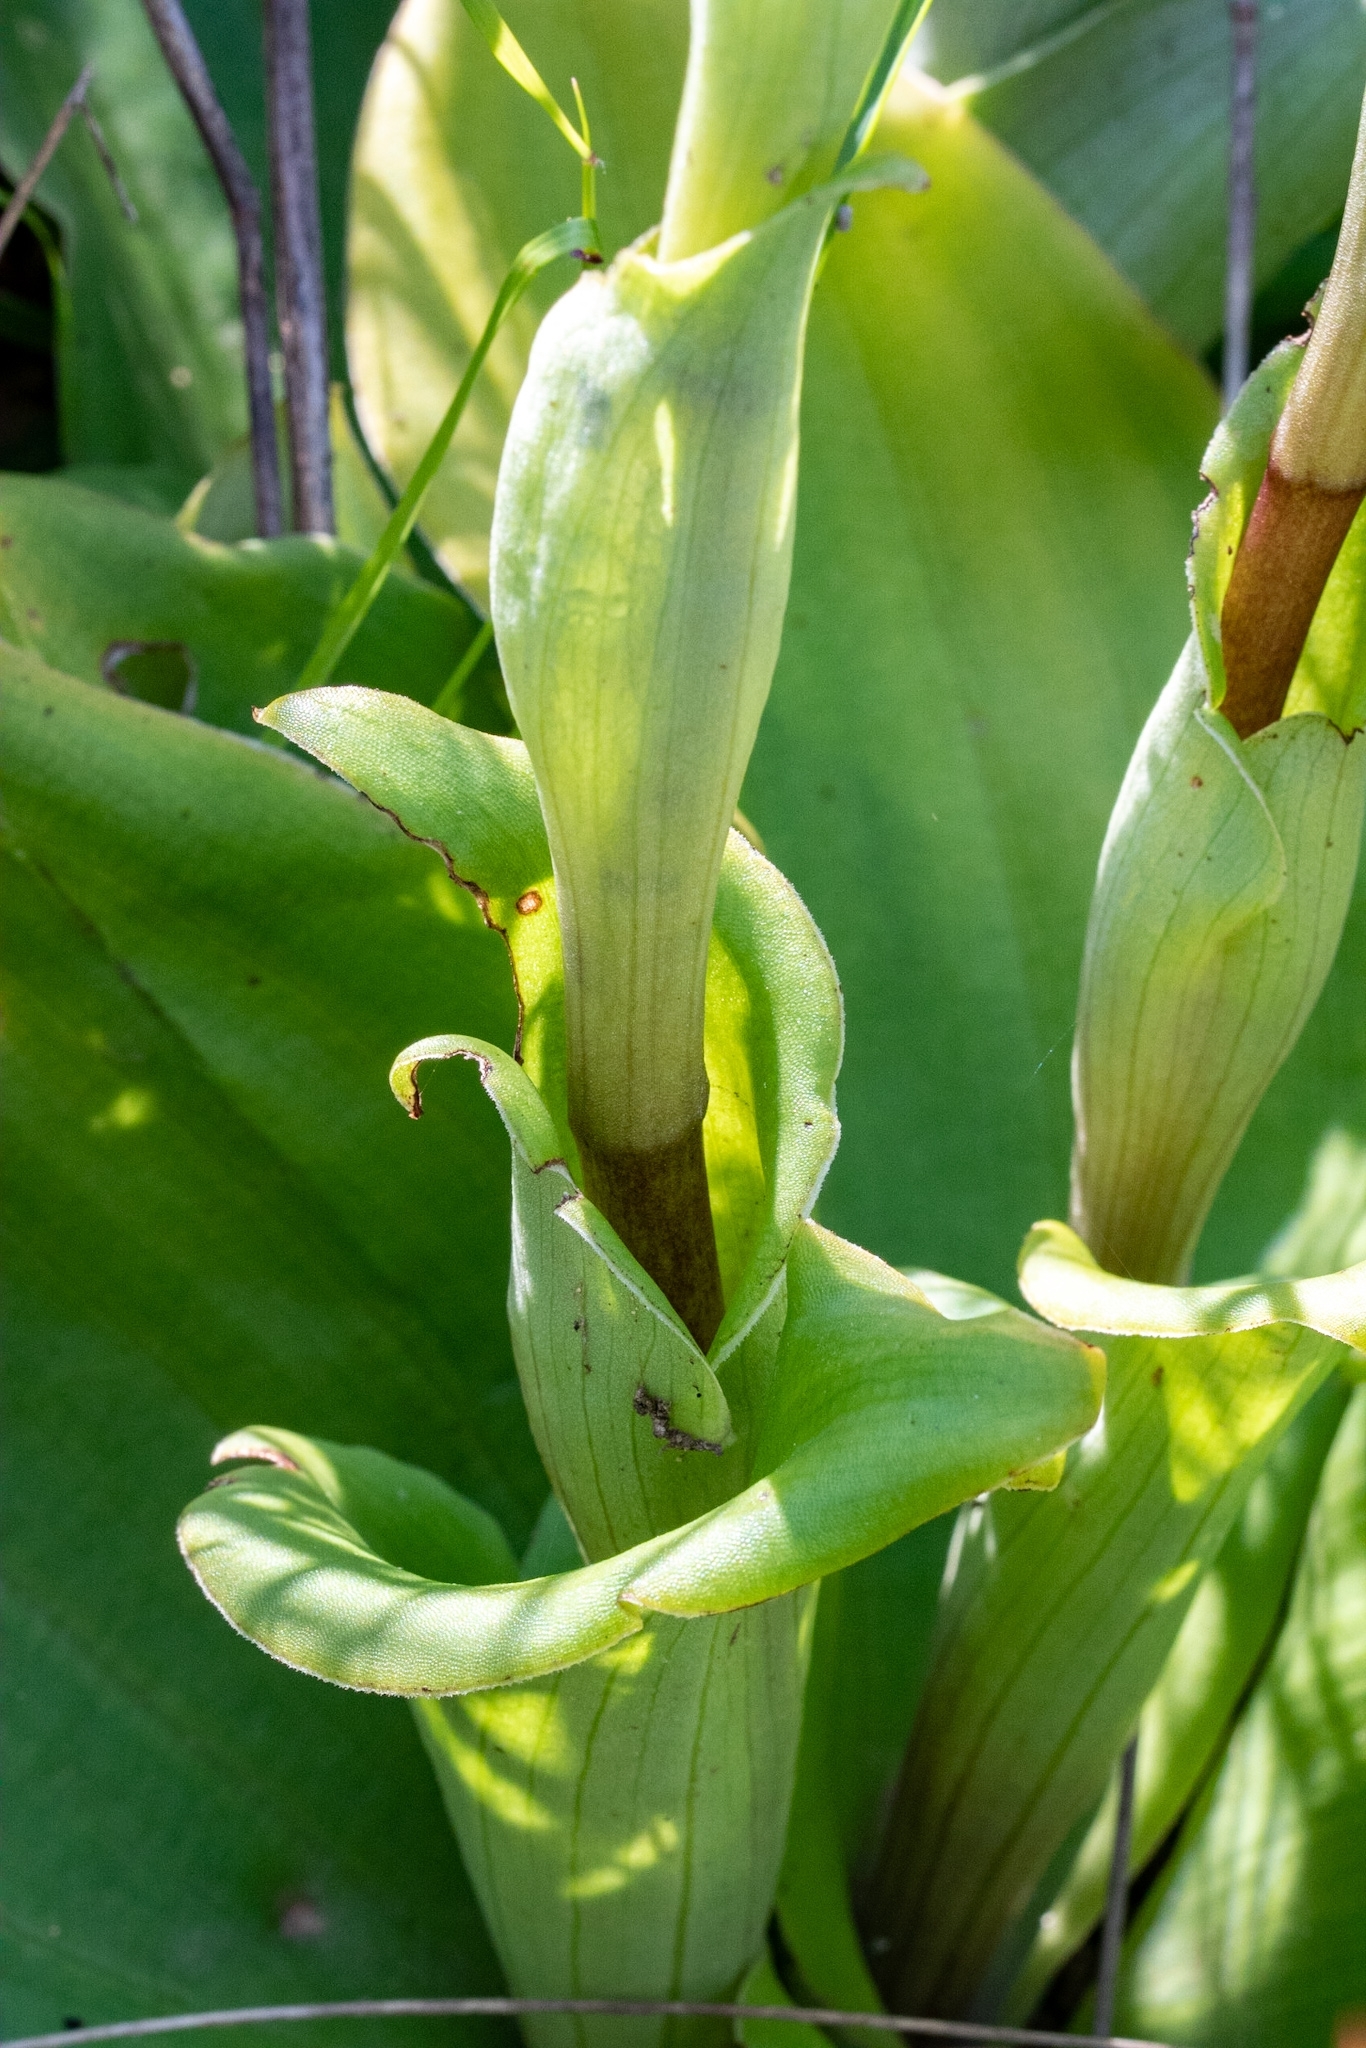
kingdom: Plantae
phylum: Tracheophyta
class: Liliopsida
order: Asparagales
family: Orchidaceae
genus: Satyrium
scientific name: Satyrium humile
